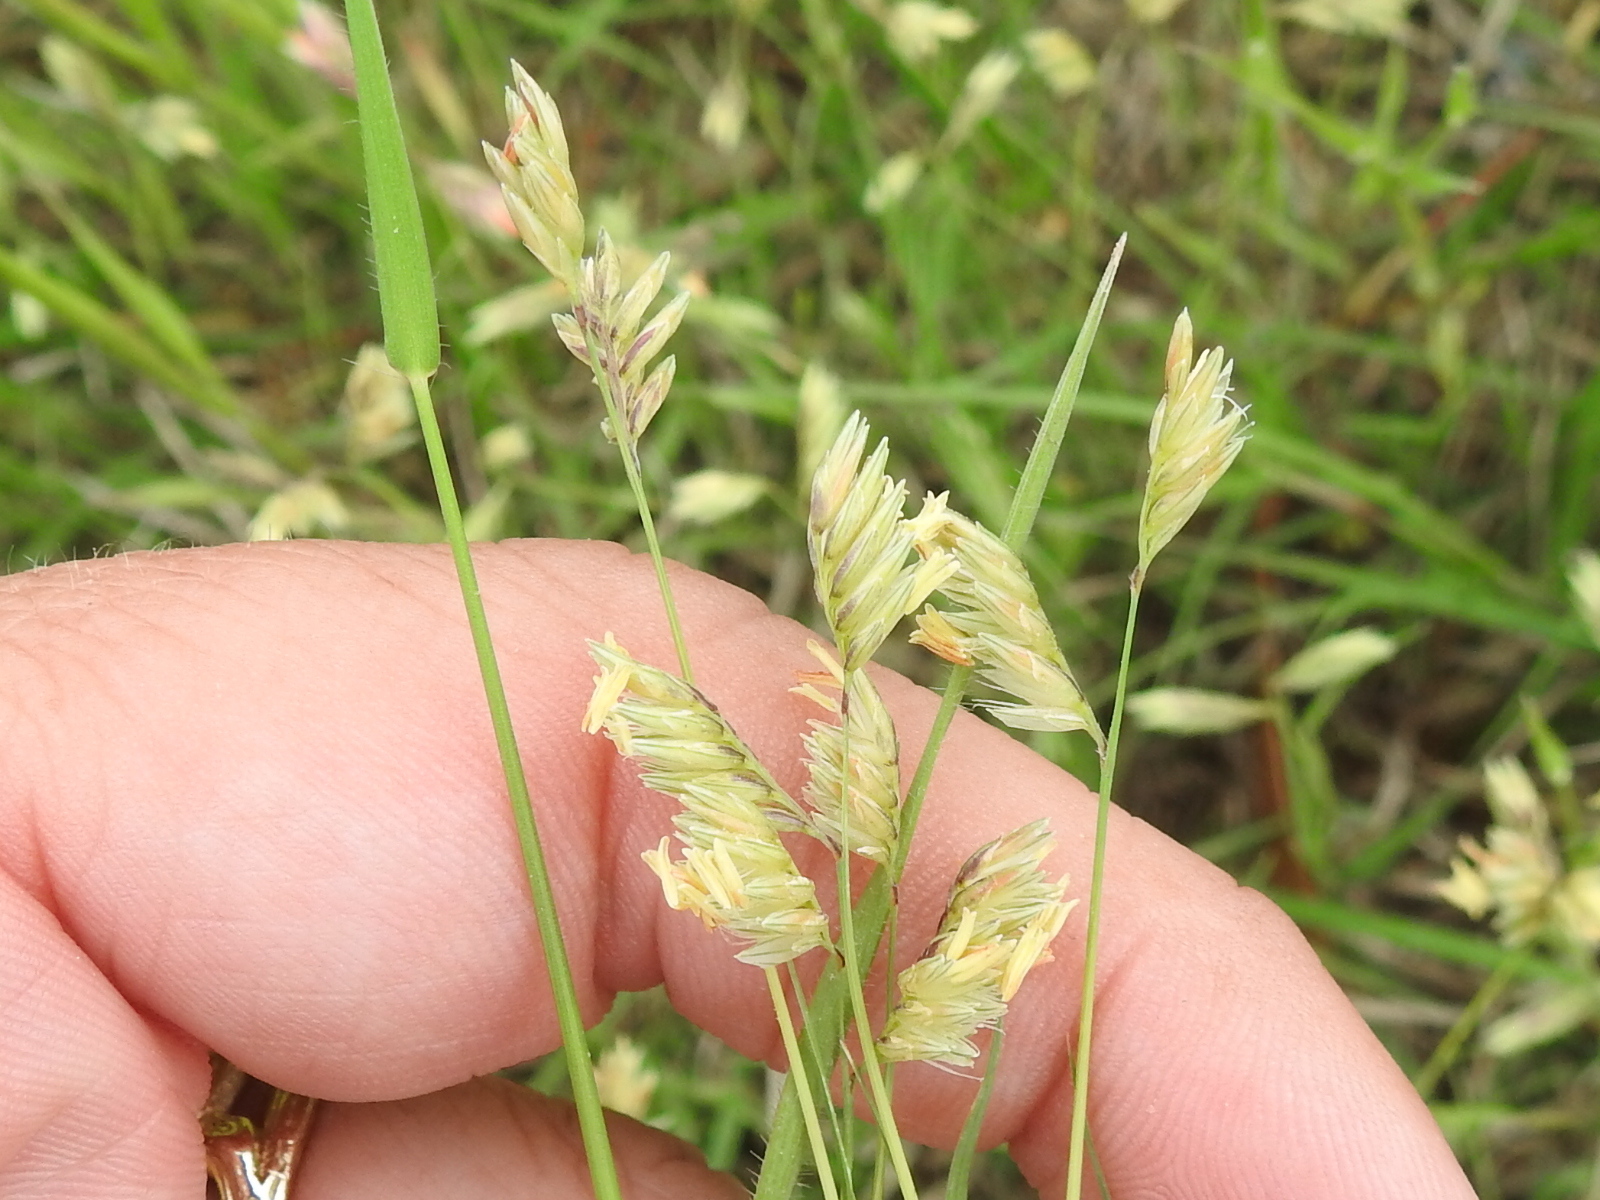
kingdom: Plantae
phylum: Tracheophyta
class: Liliopsida
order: Poales
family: Poaceae
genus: Bouteloua
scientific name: Bouteloua dactyloides
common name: Buffalo grass
